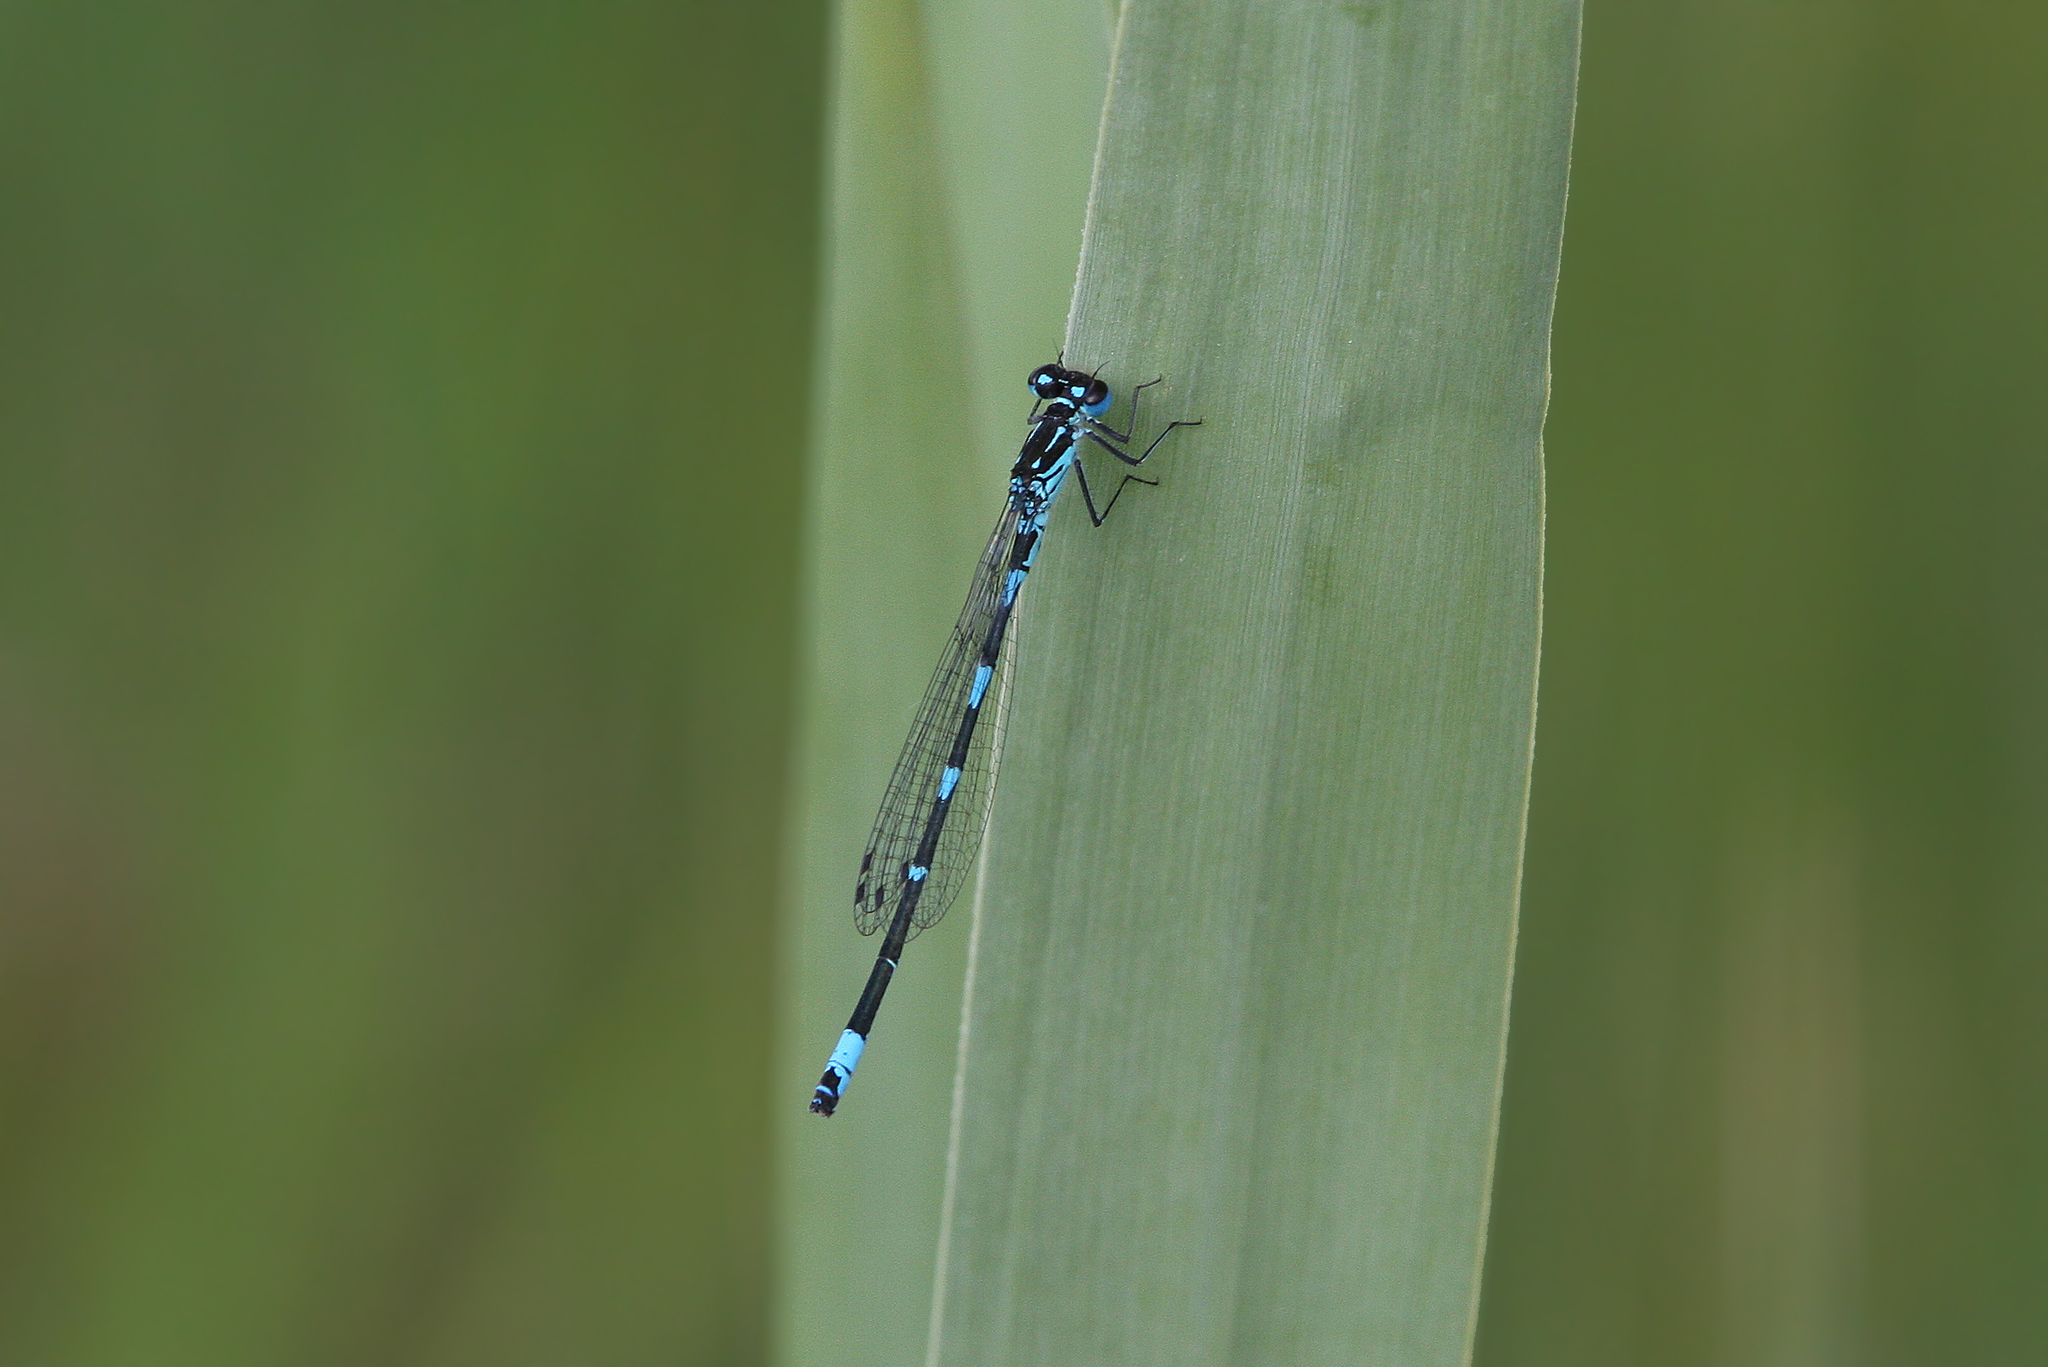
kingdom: Animalia
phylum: Arthropoda
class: Insecta
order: Odonata
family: Coenagrionidae
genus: Coenagrion
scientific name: Coenagrion pulchellum
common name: Variable bluet
